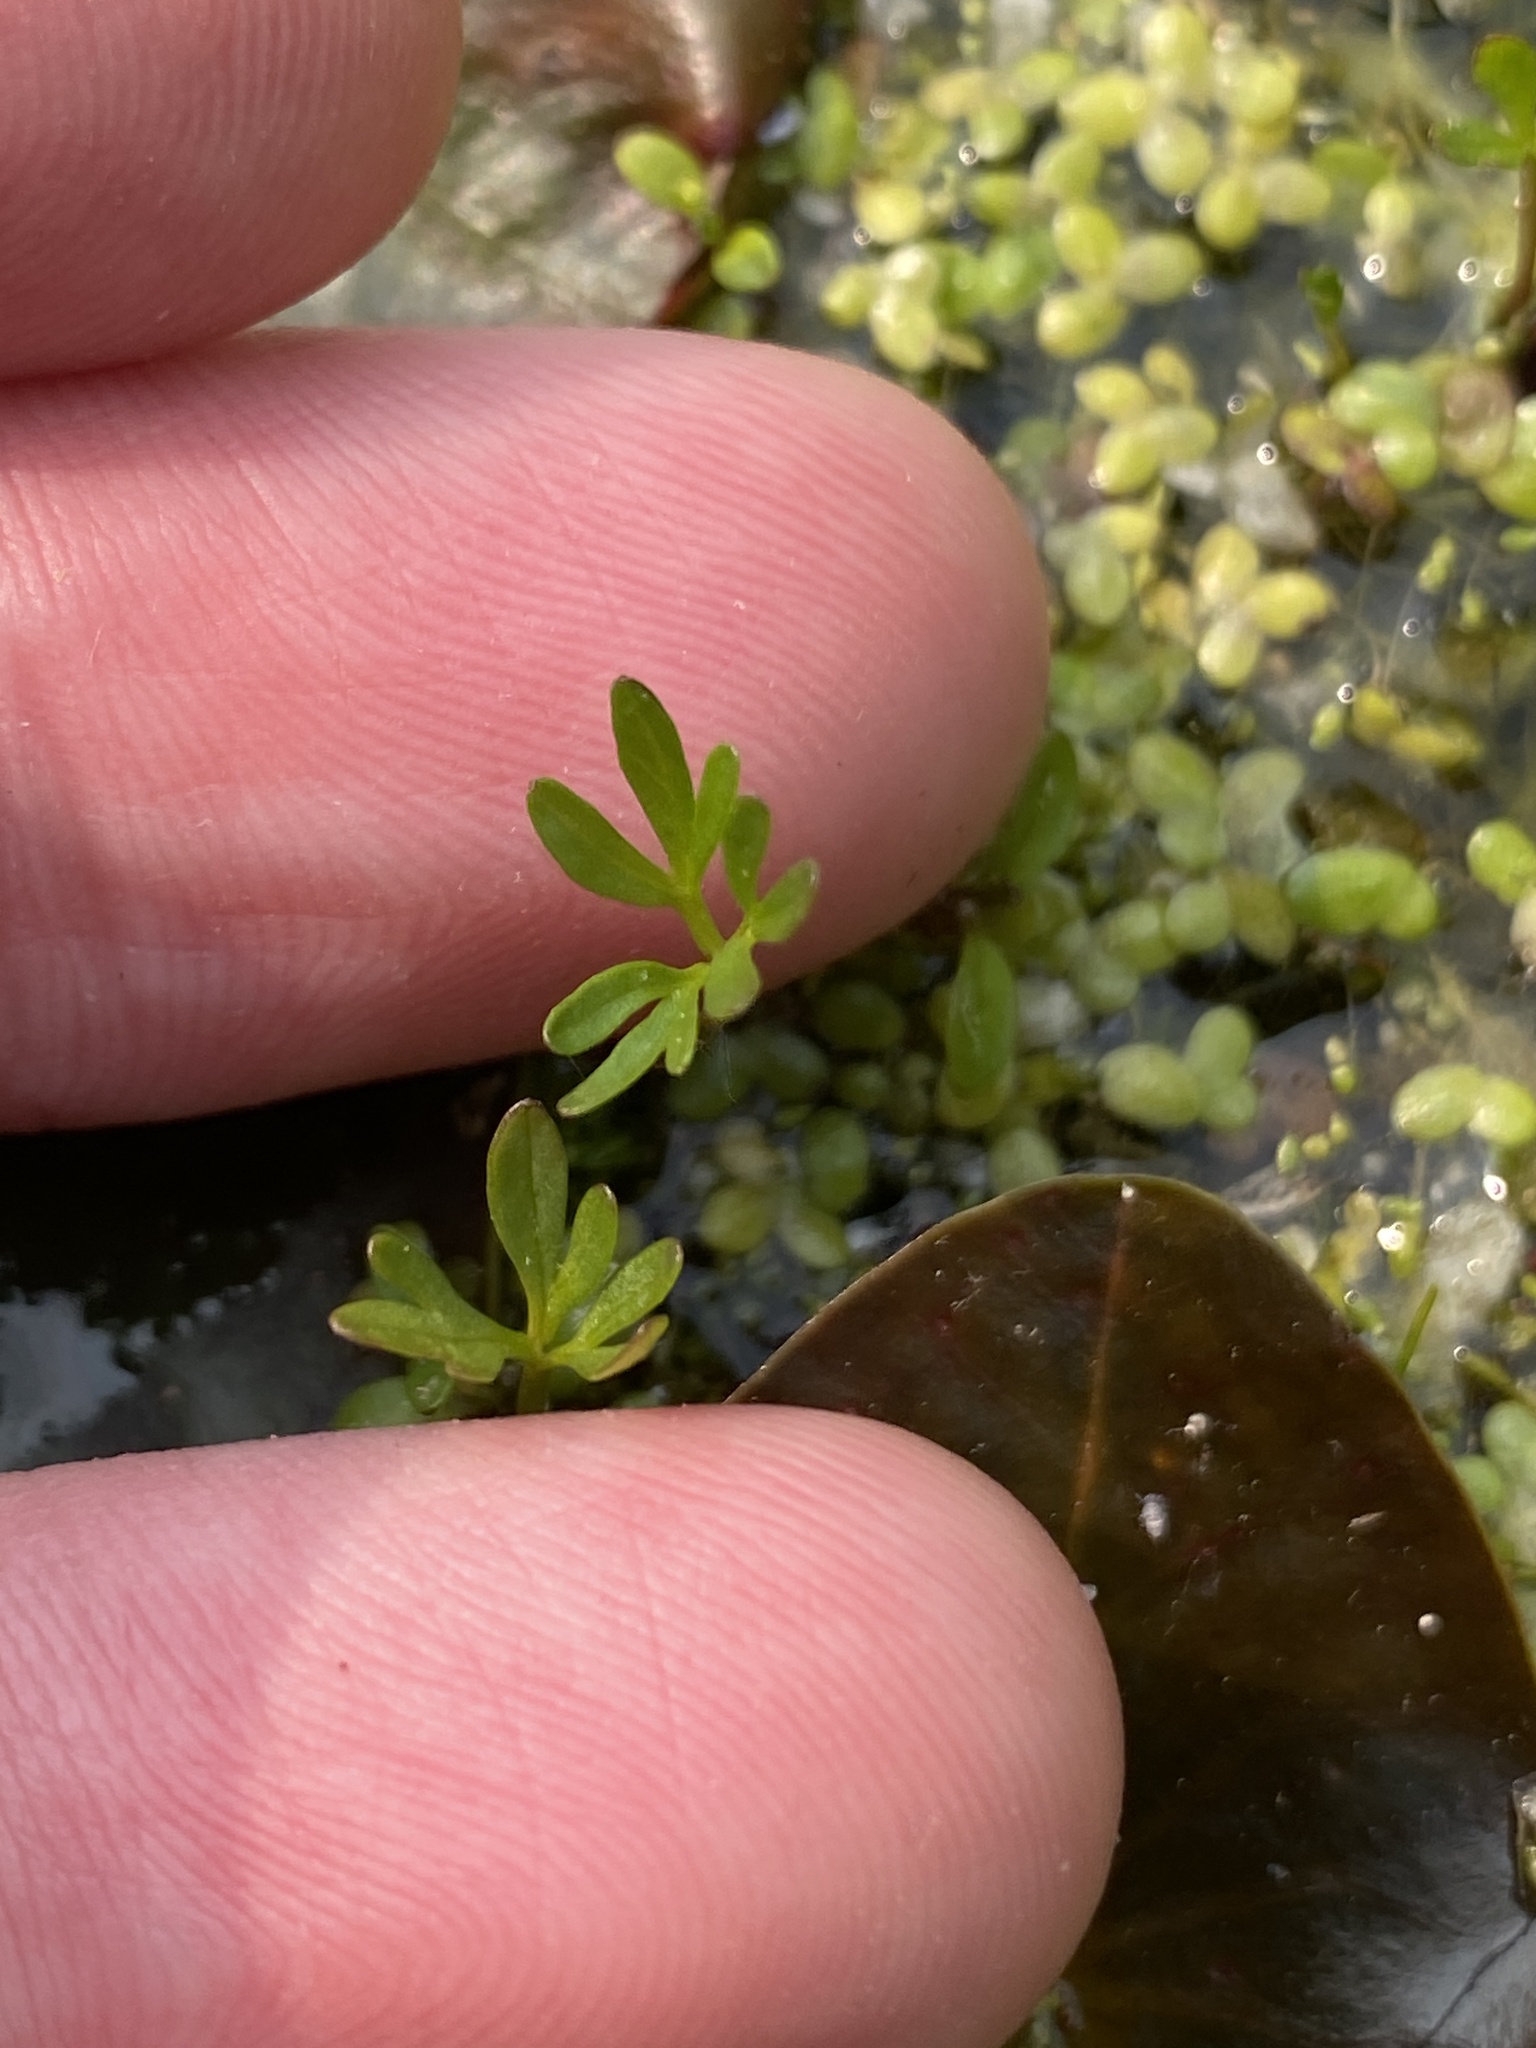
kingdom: Plantae
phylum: Tracheophyta
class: Magnoliopsida
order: Brassicales
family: Limnanthaceae
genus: Floerkea
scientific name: Floerkea proserpinacoides
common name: False mermaid
